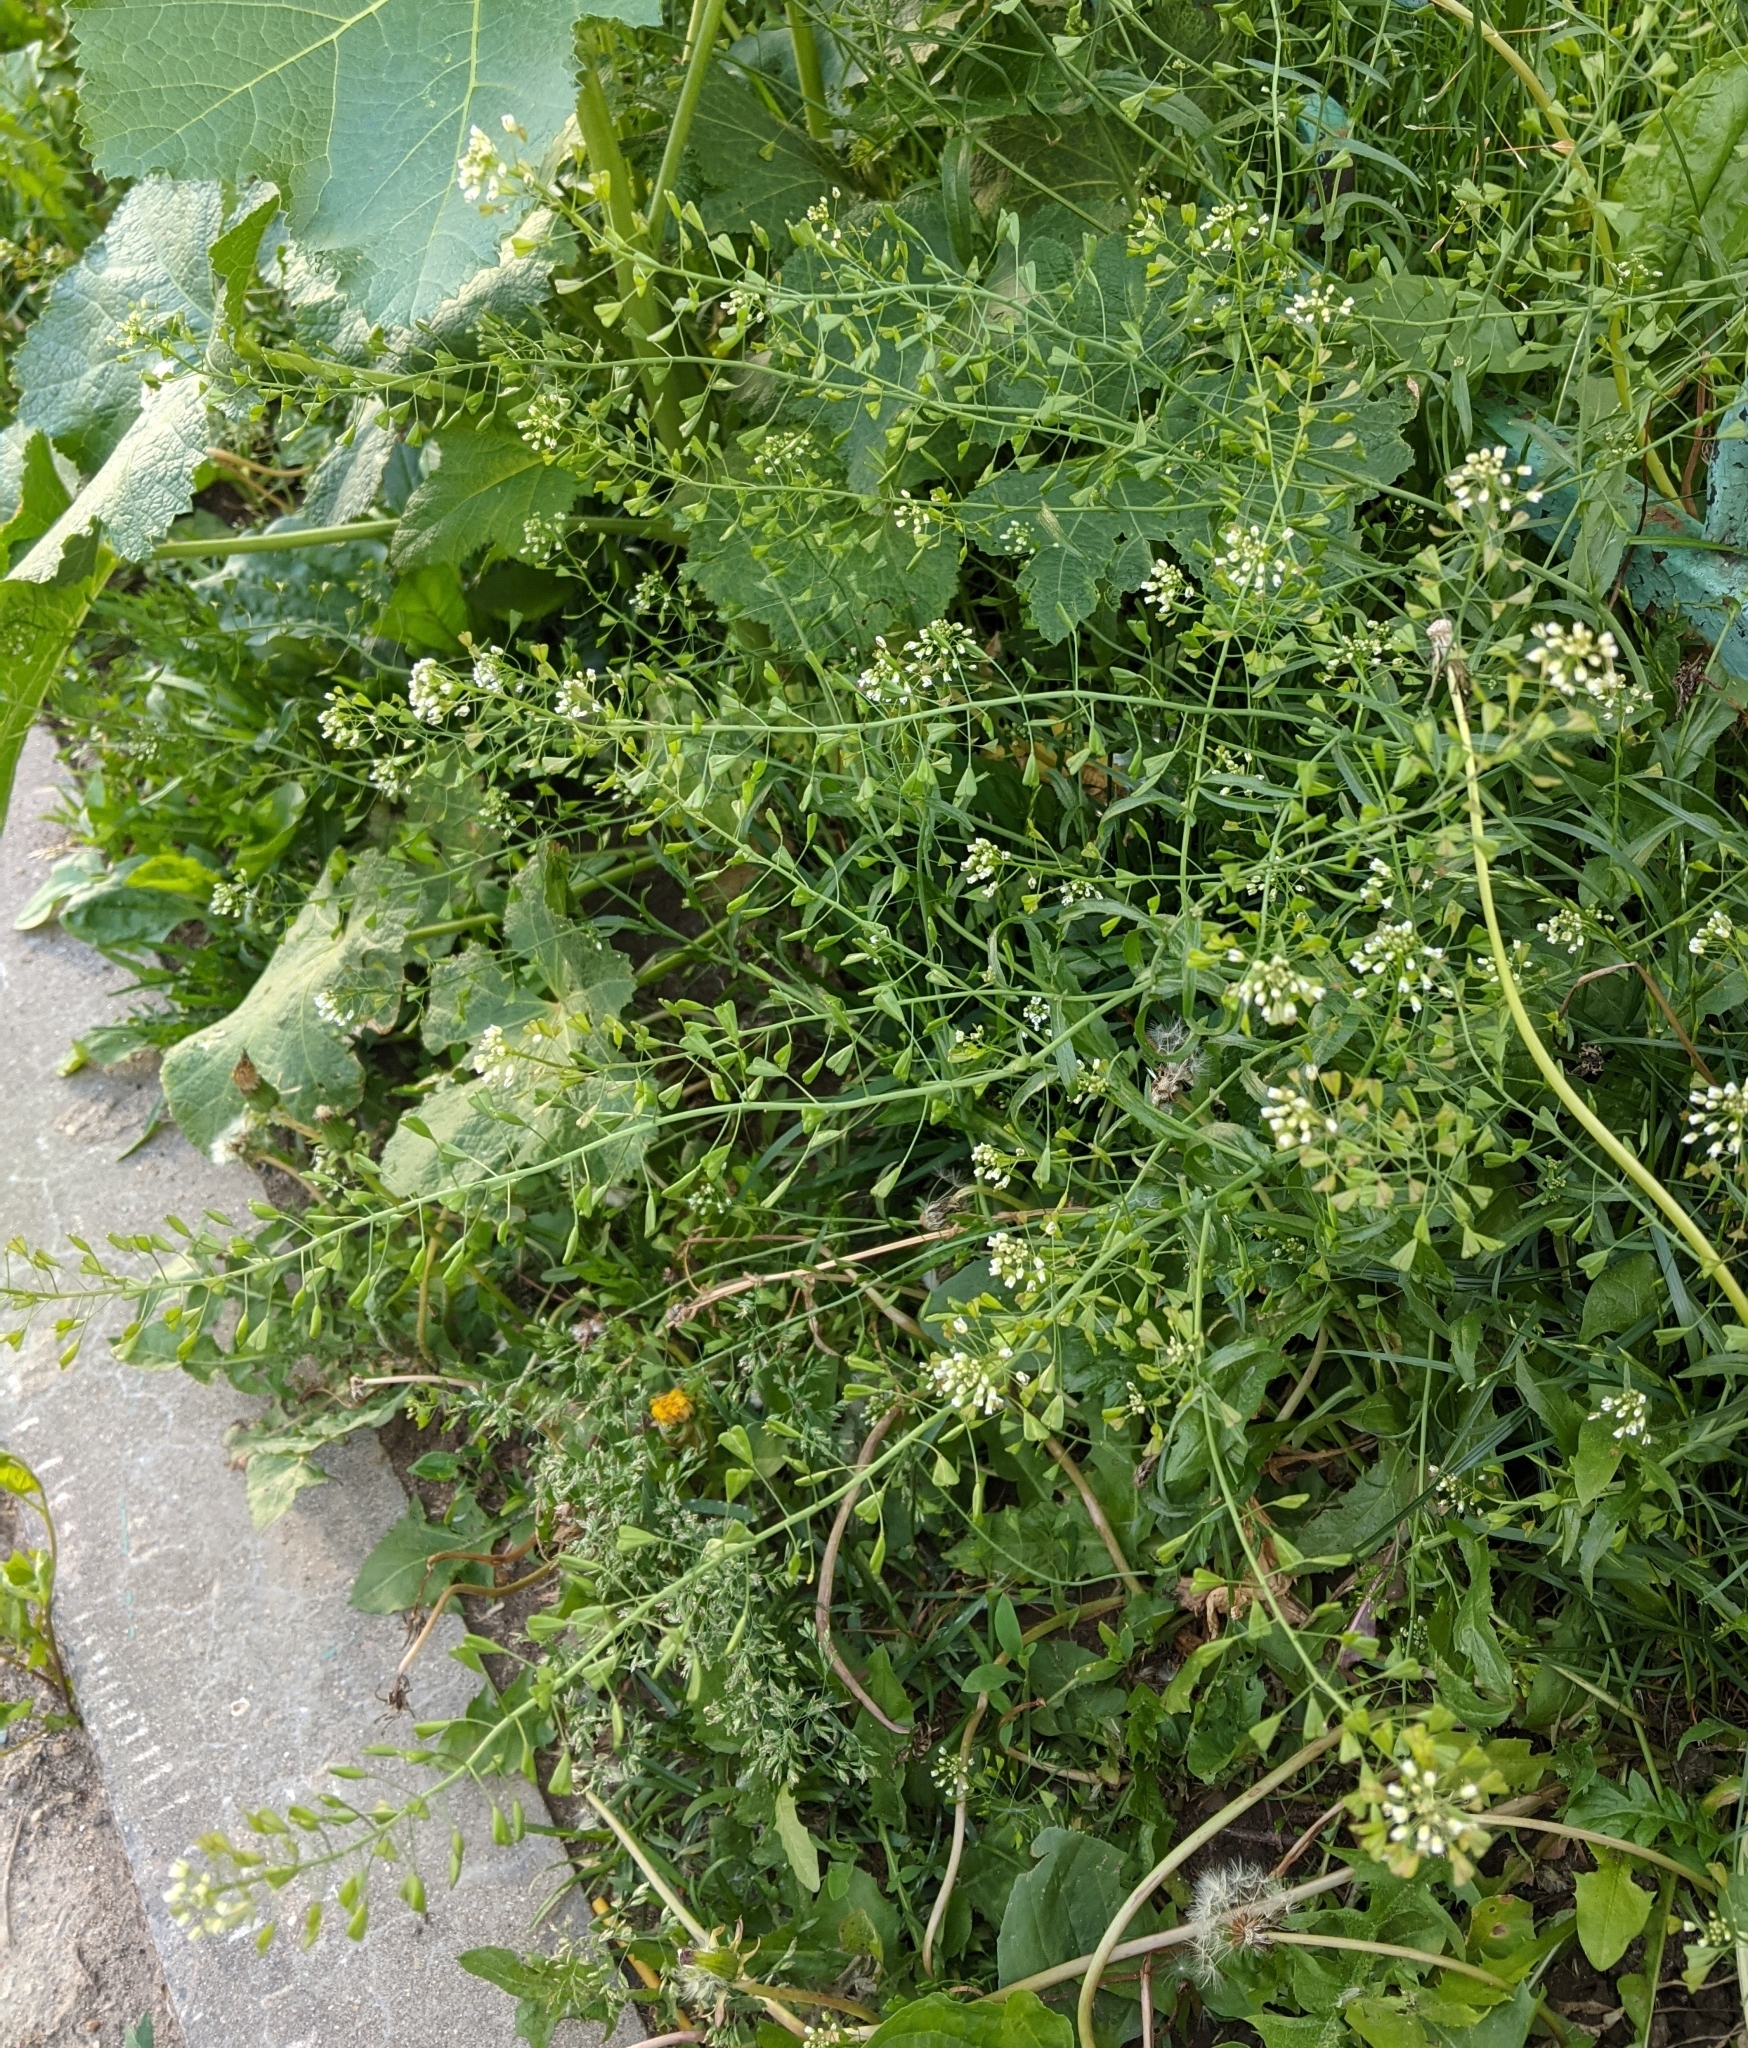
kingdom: Plantae
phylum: Tracheophyta
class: Magnoliopsida
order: Brassicales
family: Brassicaceae
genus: Capsella
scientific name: Capsella bursa-pastoris
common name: Shepherd's purse
